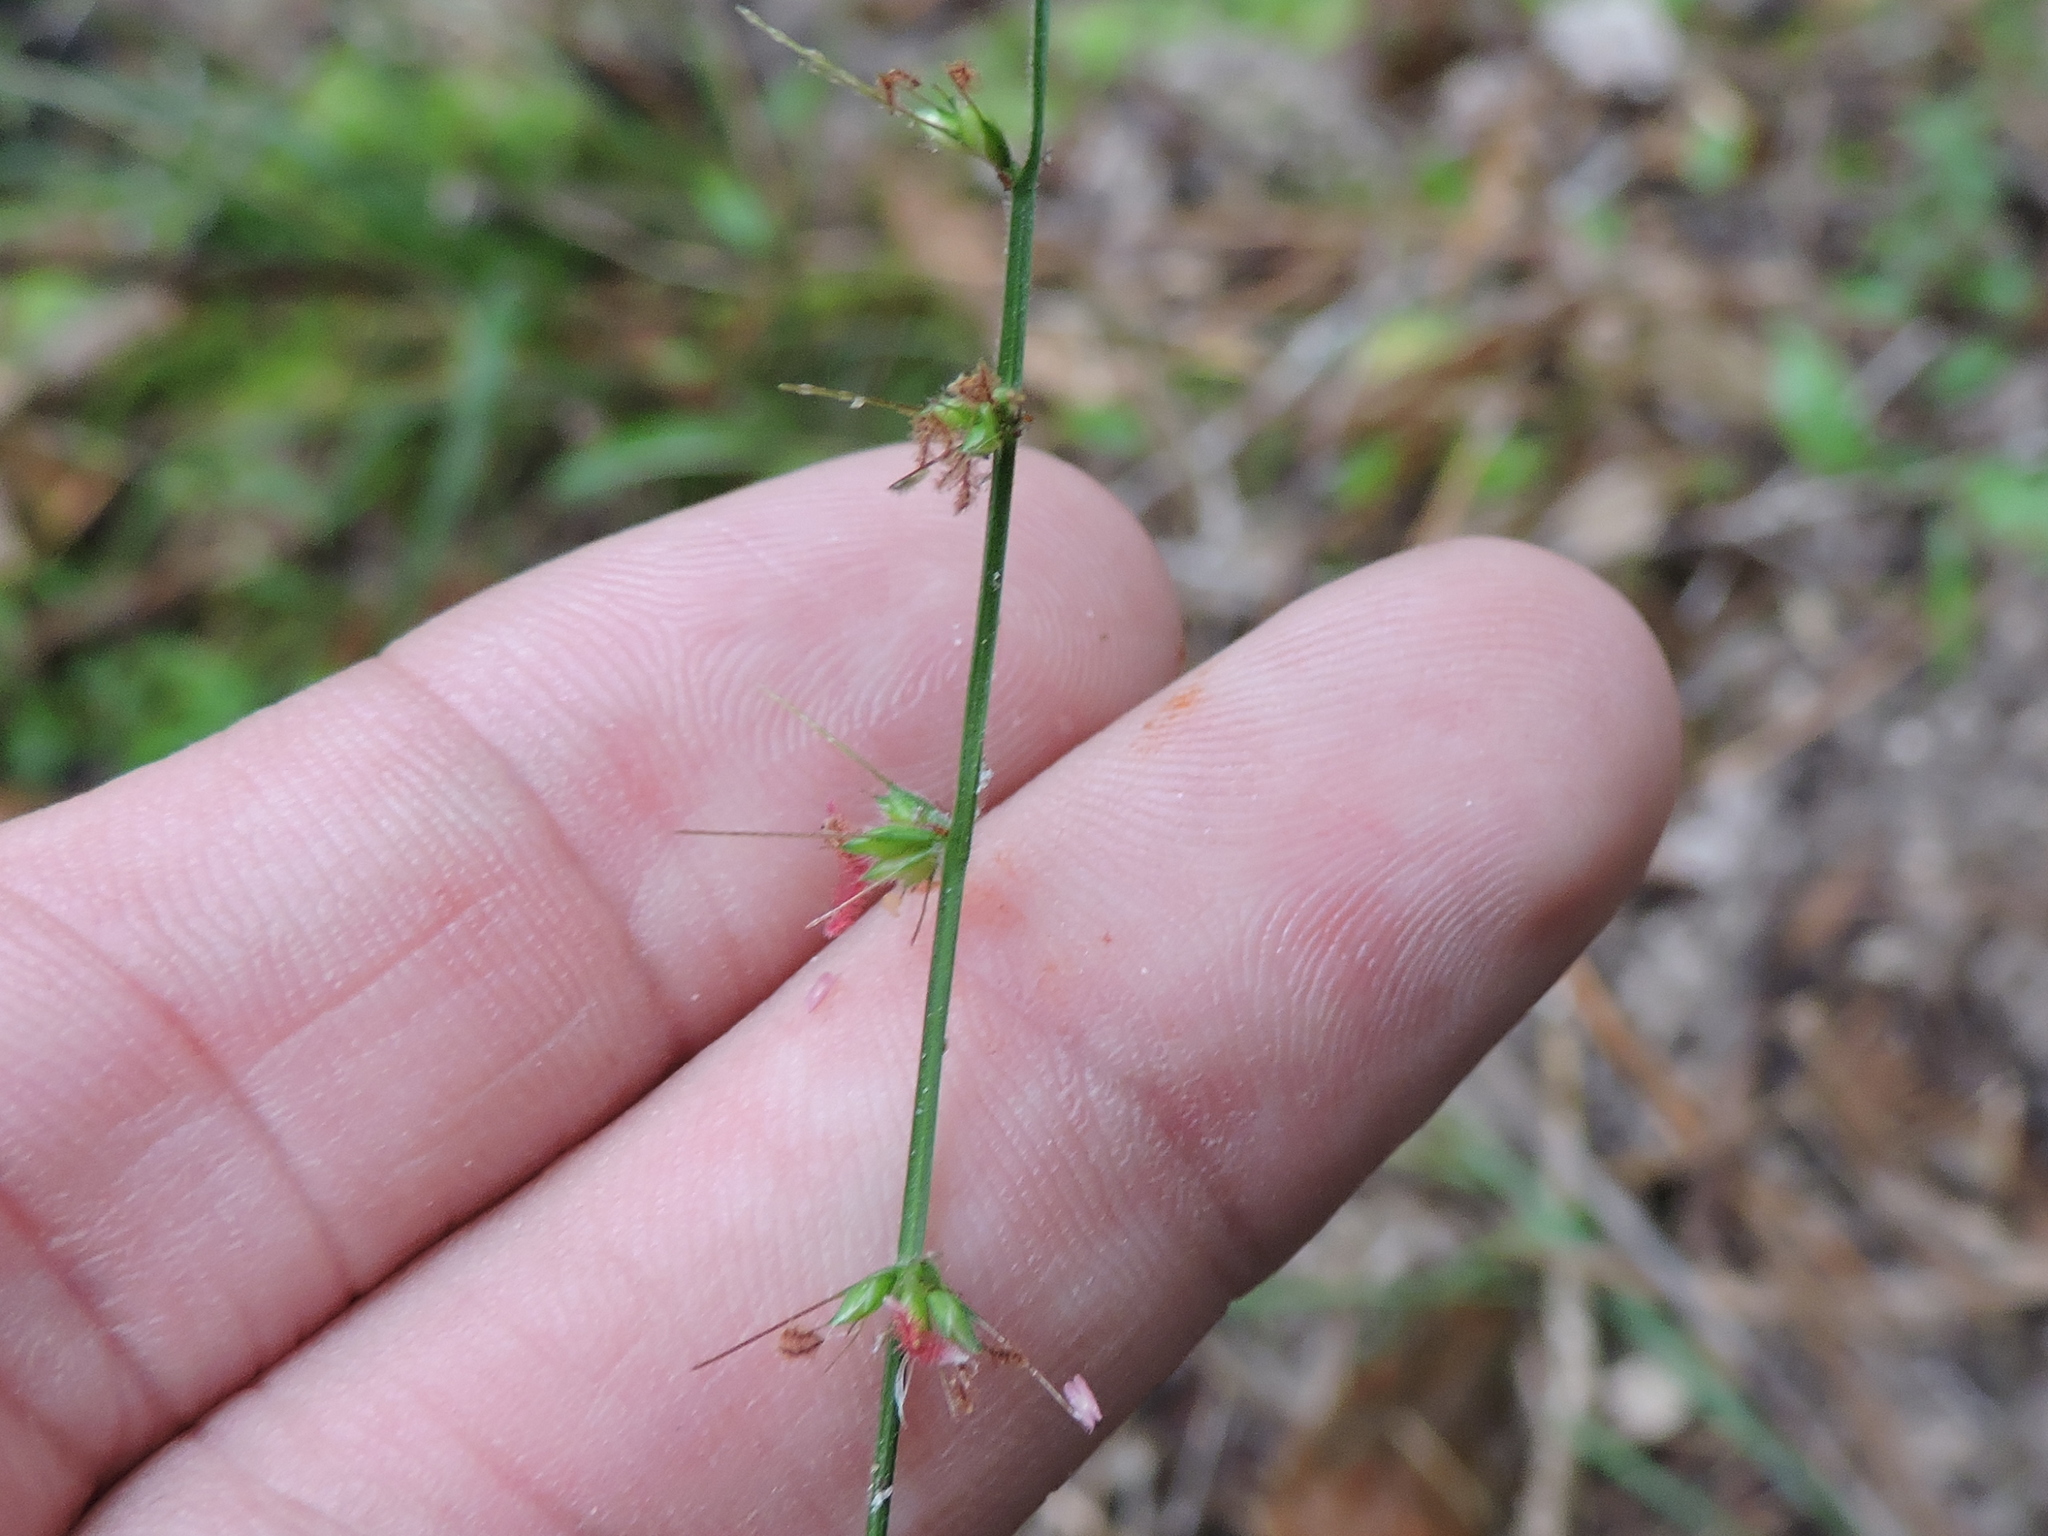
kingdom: Plantae
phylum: Tracheophyta
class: Liliopsida
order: Poales
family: Poaceae
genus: Oplismenus
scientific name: Oplismenus hirtellus
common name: Basketgrass
